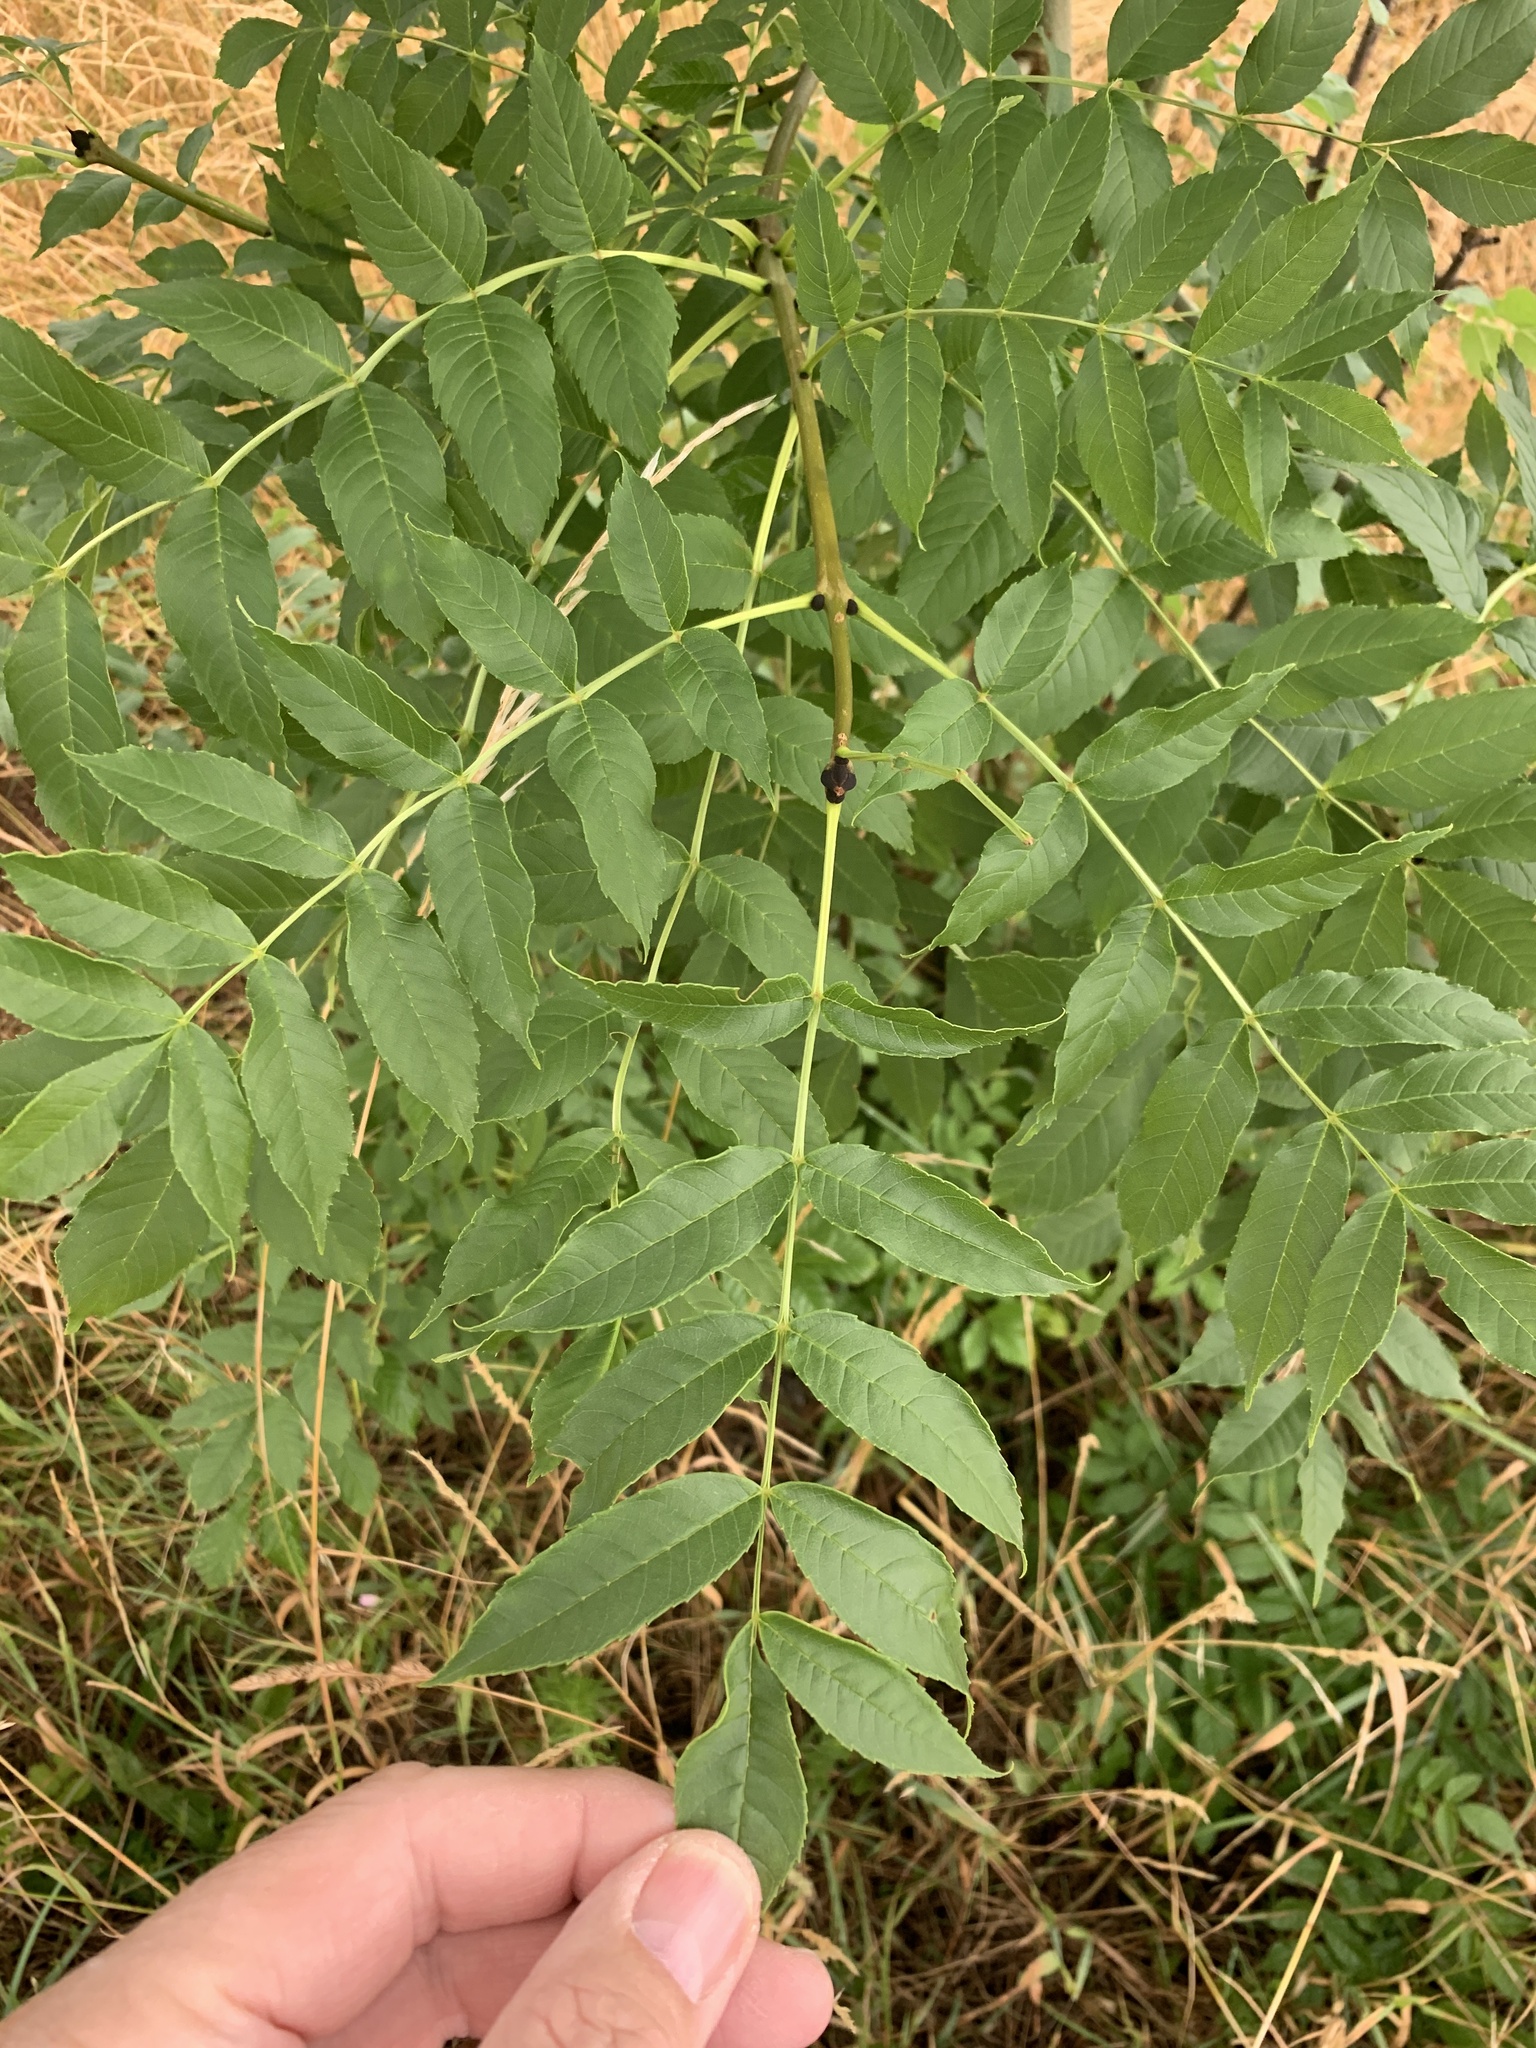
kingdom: Plantae
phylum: Tracheophyta
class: Magnoliopsida
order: Lamiales
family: Oleaceae
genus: Fraxinus
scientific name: Fraxinus excelsior
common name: European ash
